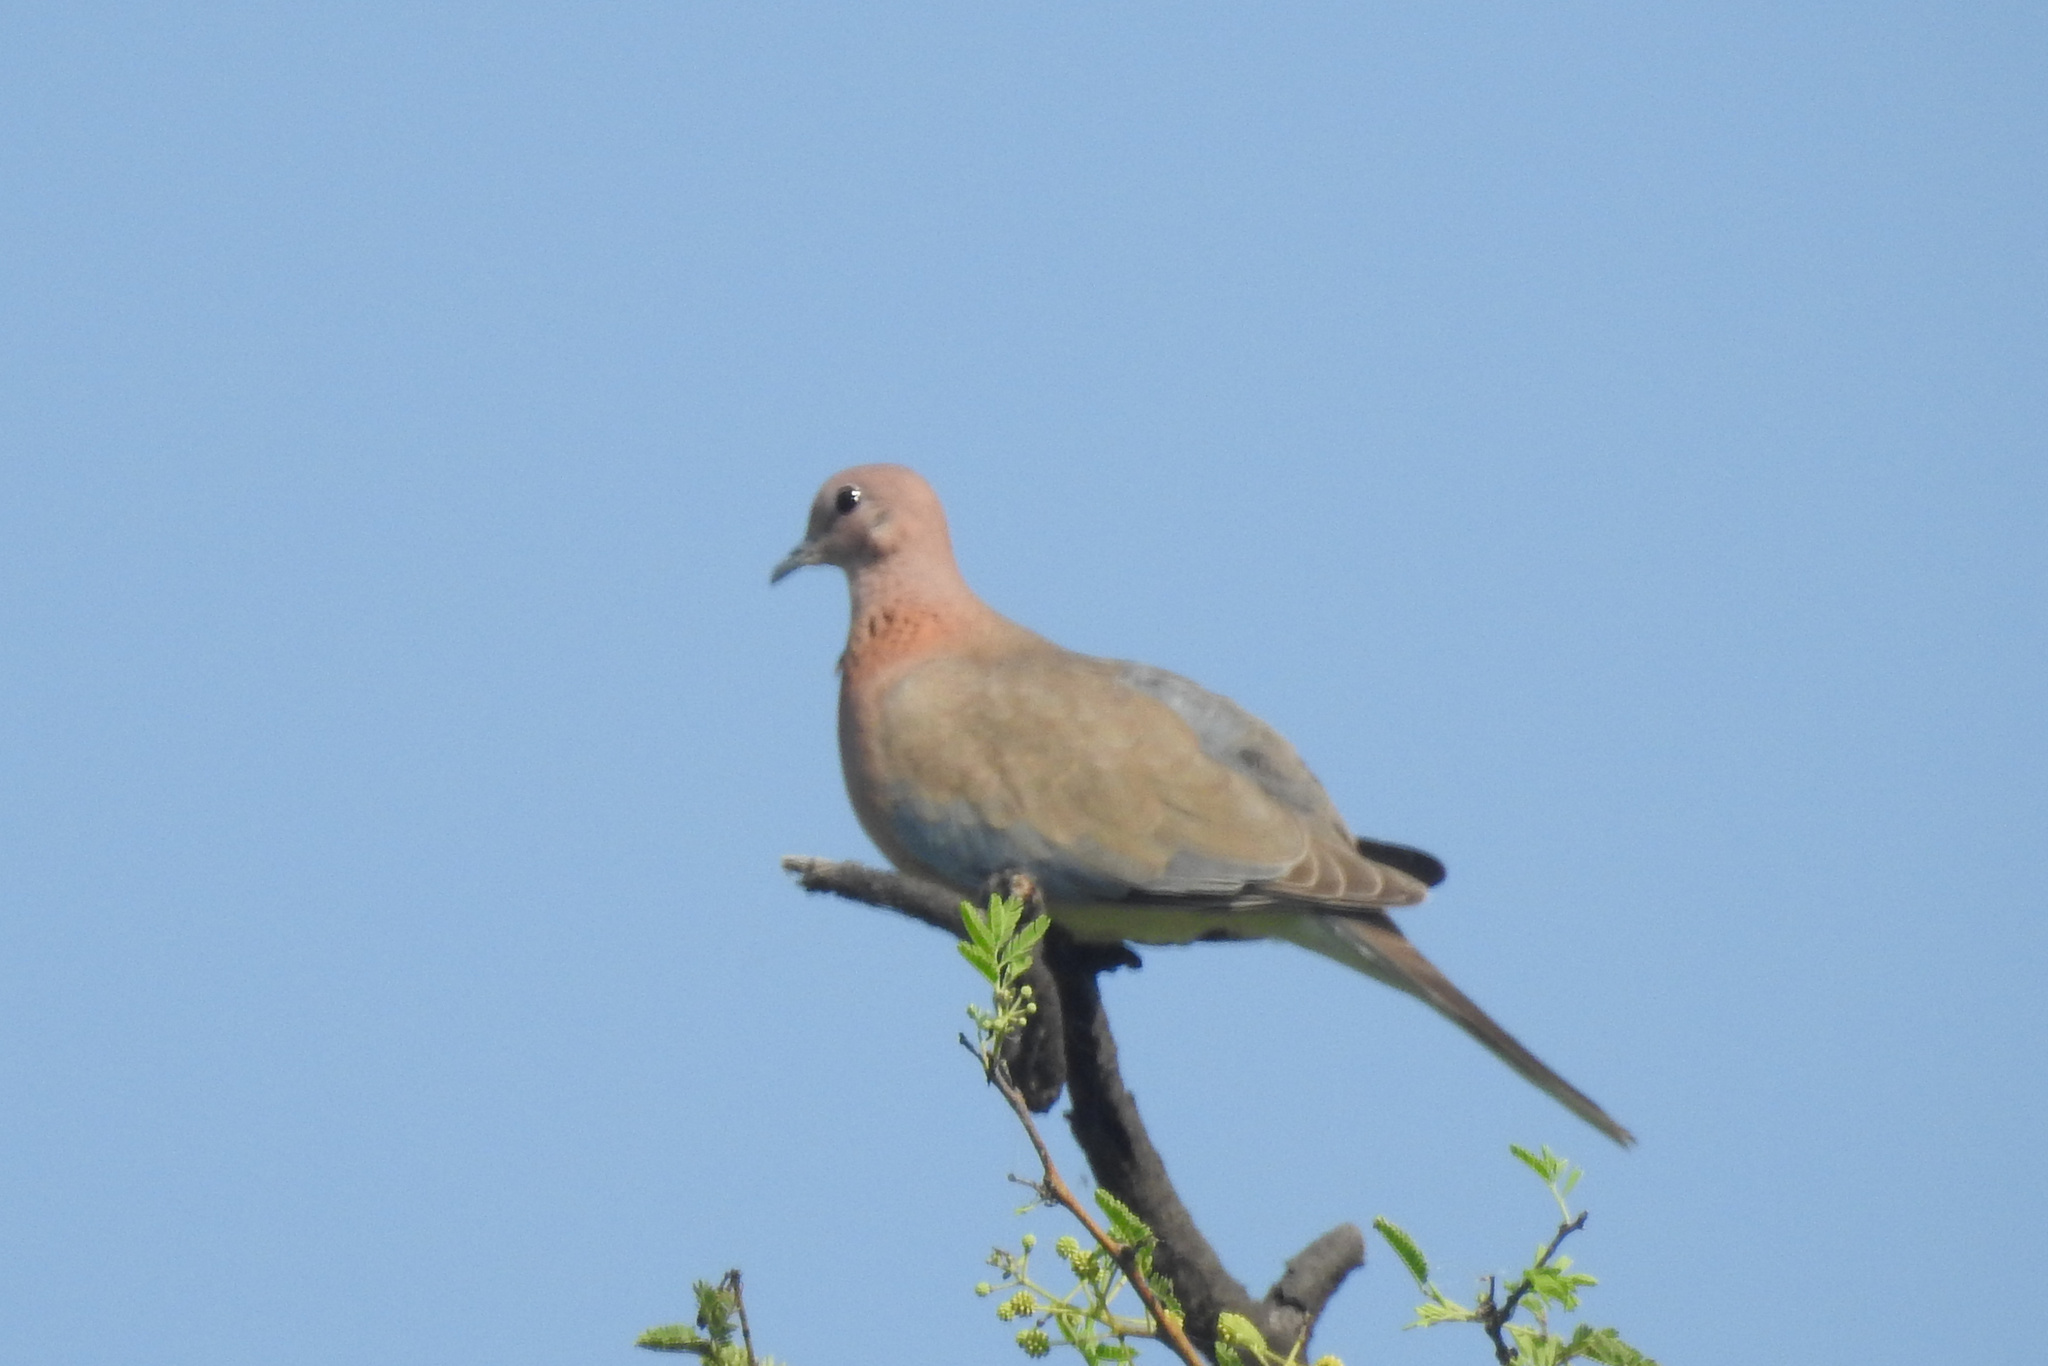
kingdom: Animalia
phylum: Chordata
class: Aves
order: Columbiformes
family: Columbidae
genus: Spilopelia
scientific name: Spilopelia senegalensis
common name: Laughing dove
